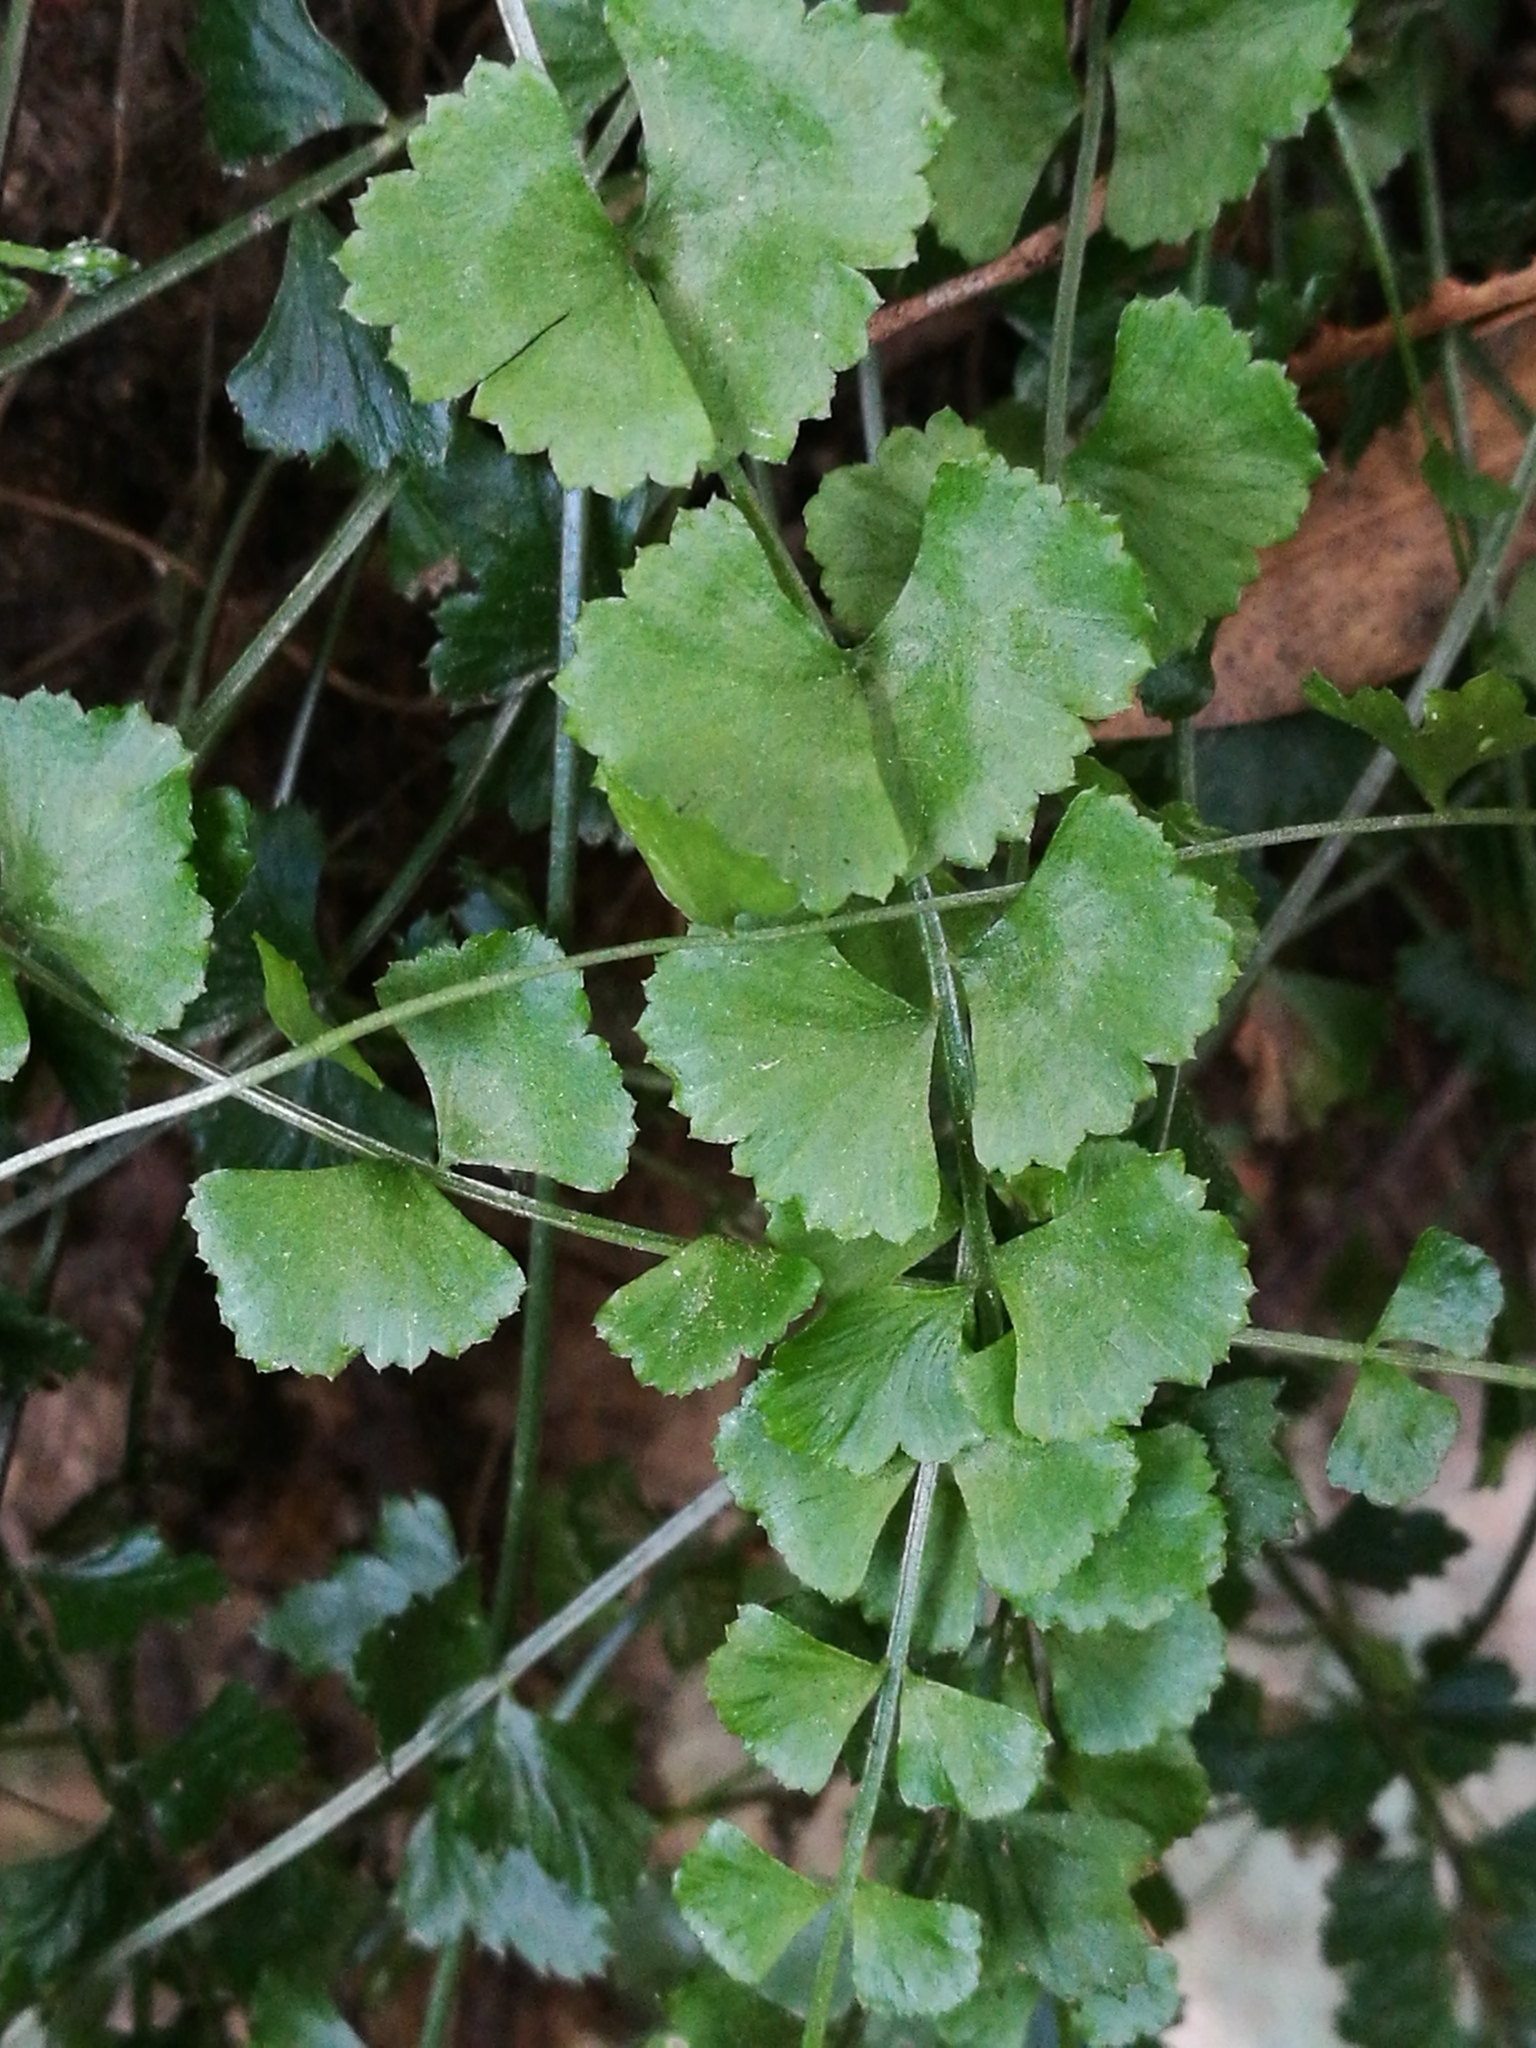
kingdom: Plantae
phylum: Tracheophyta
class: Polypodiopsida
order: Polypodiales
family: Aspleniaceae
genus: Asplenium
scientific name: Asplenium flabellifolium
